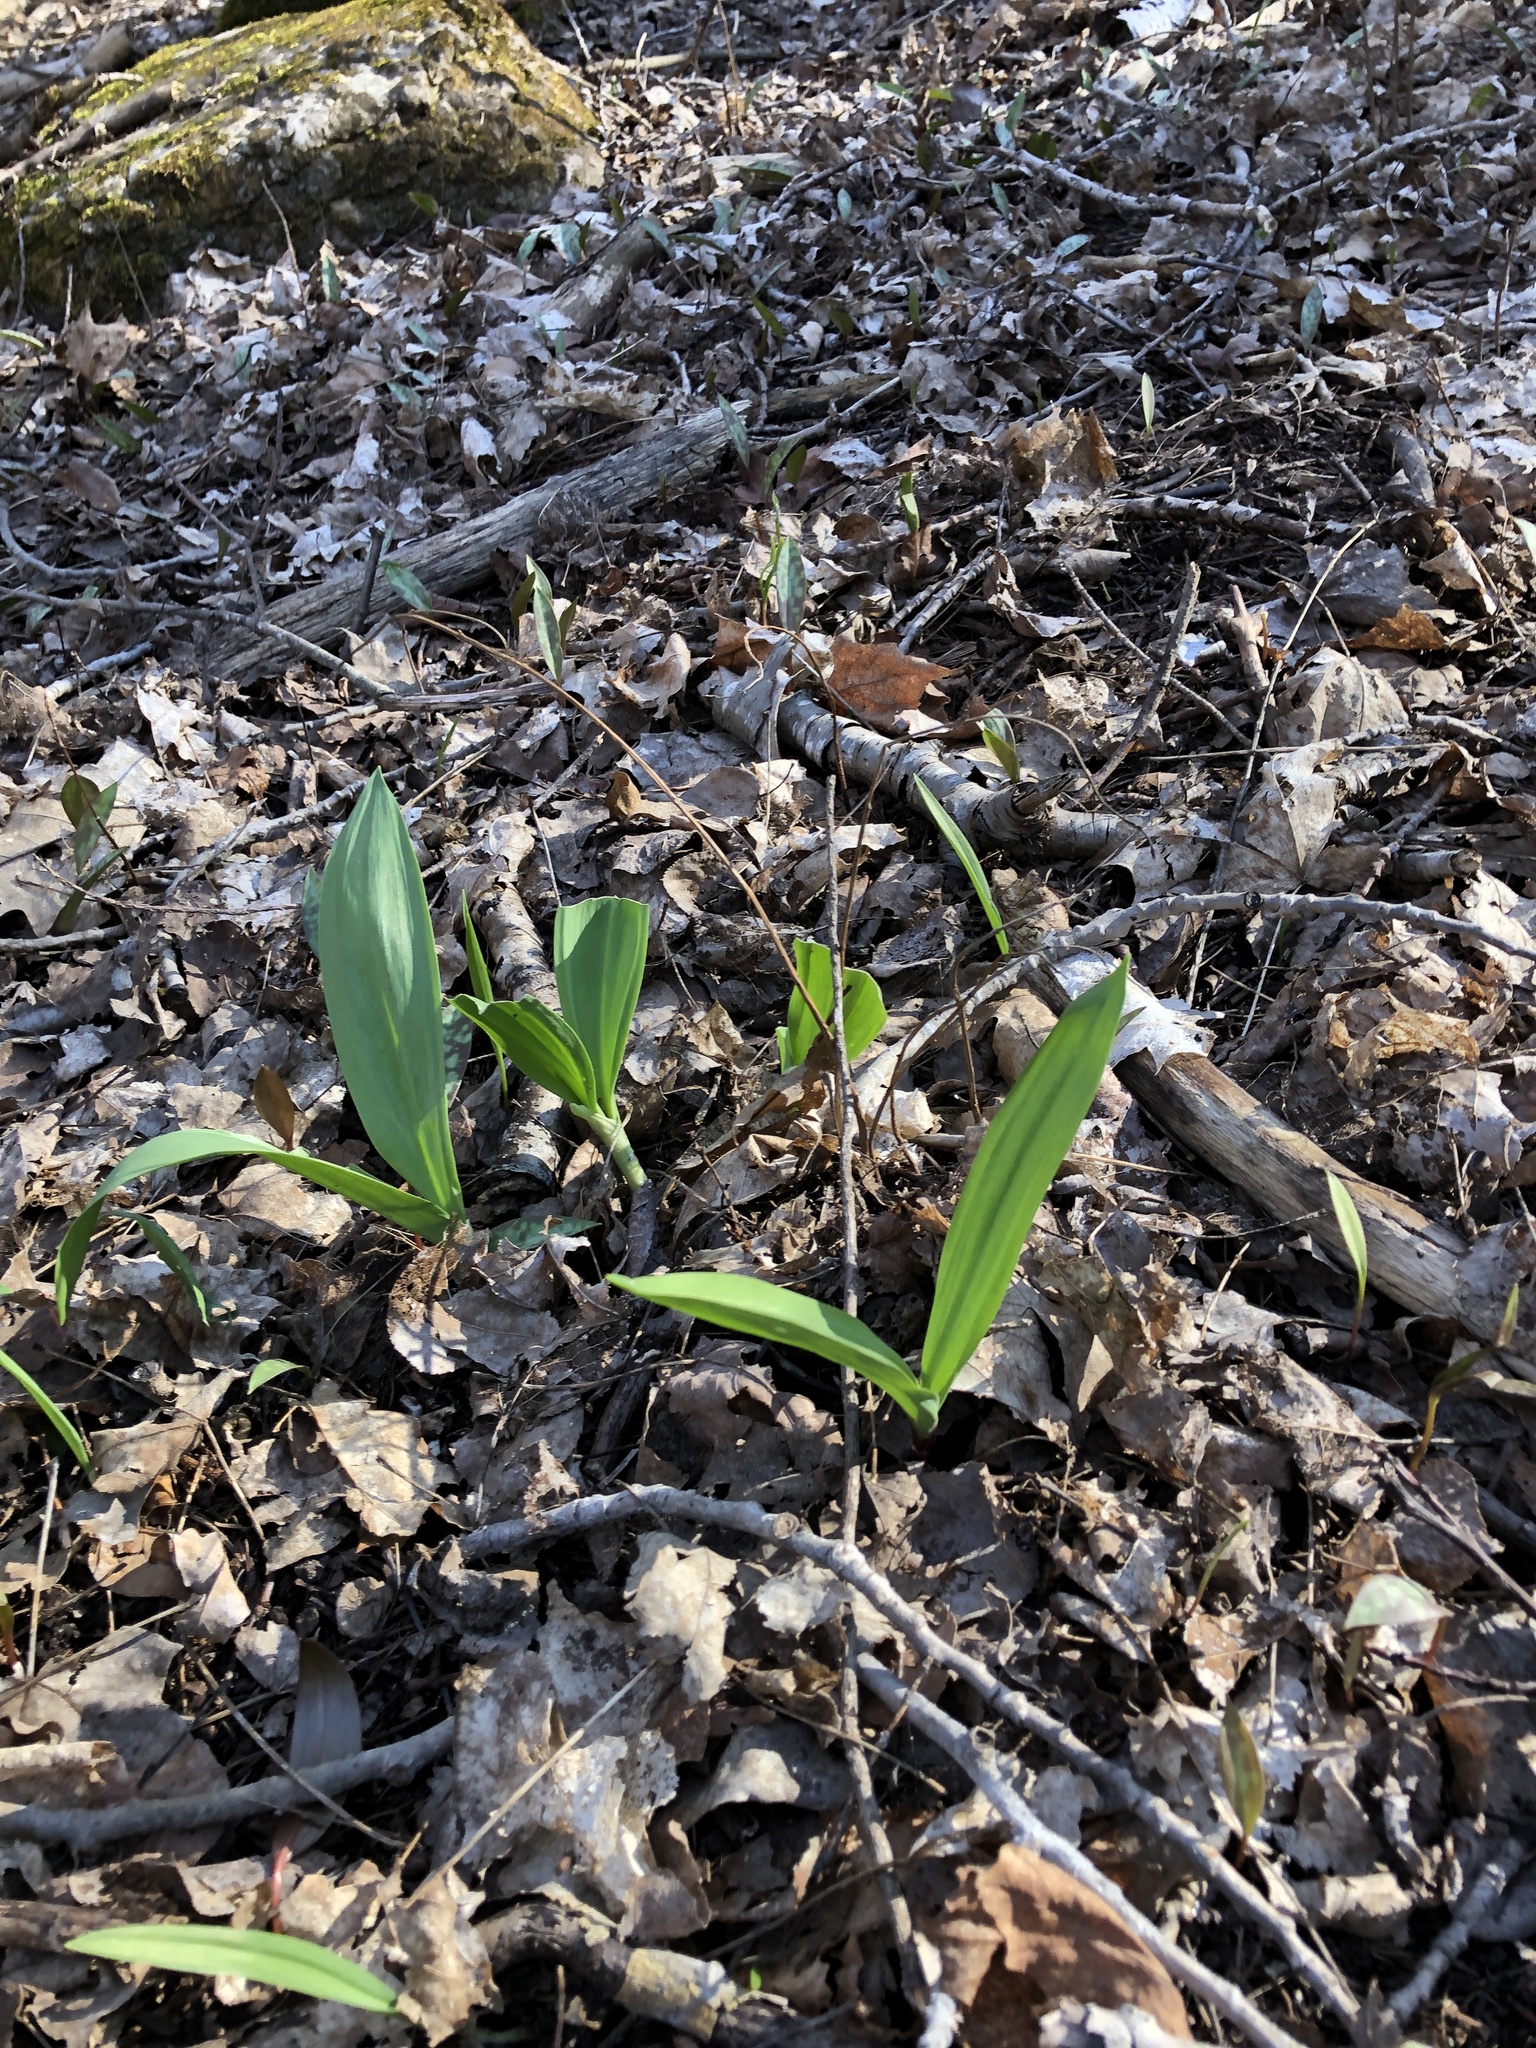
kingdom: Plantae
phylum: Tracheophyta
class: Liliopsida
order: Asparagales
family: Amaryllidaceae
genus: Allium
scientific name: Allium tricoccum
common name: Ramp
